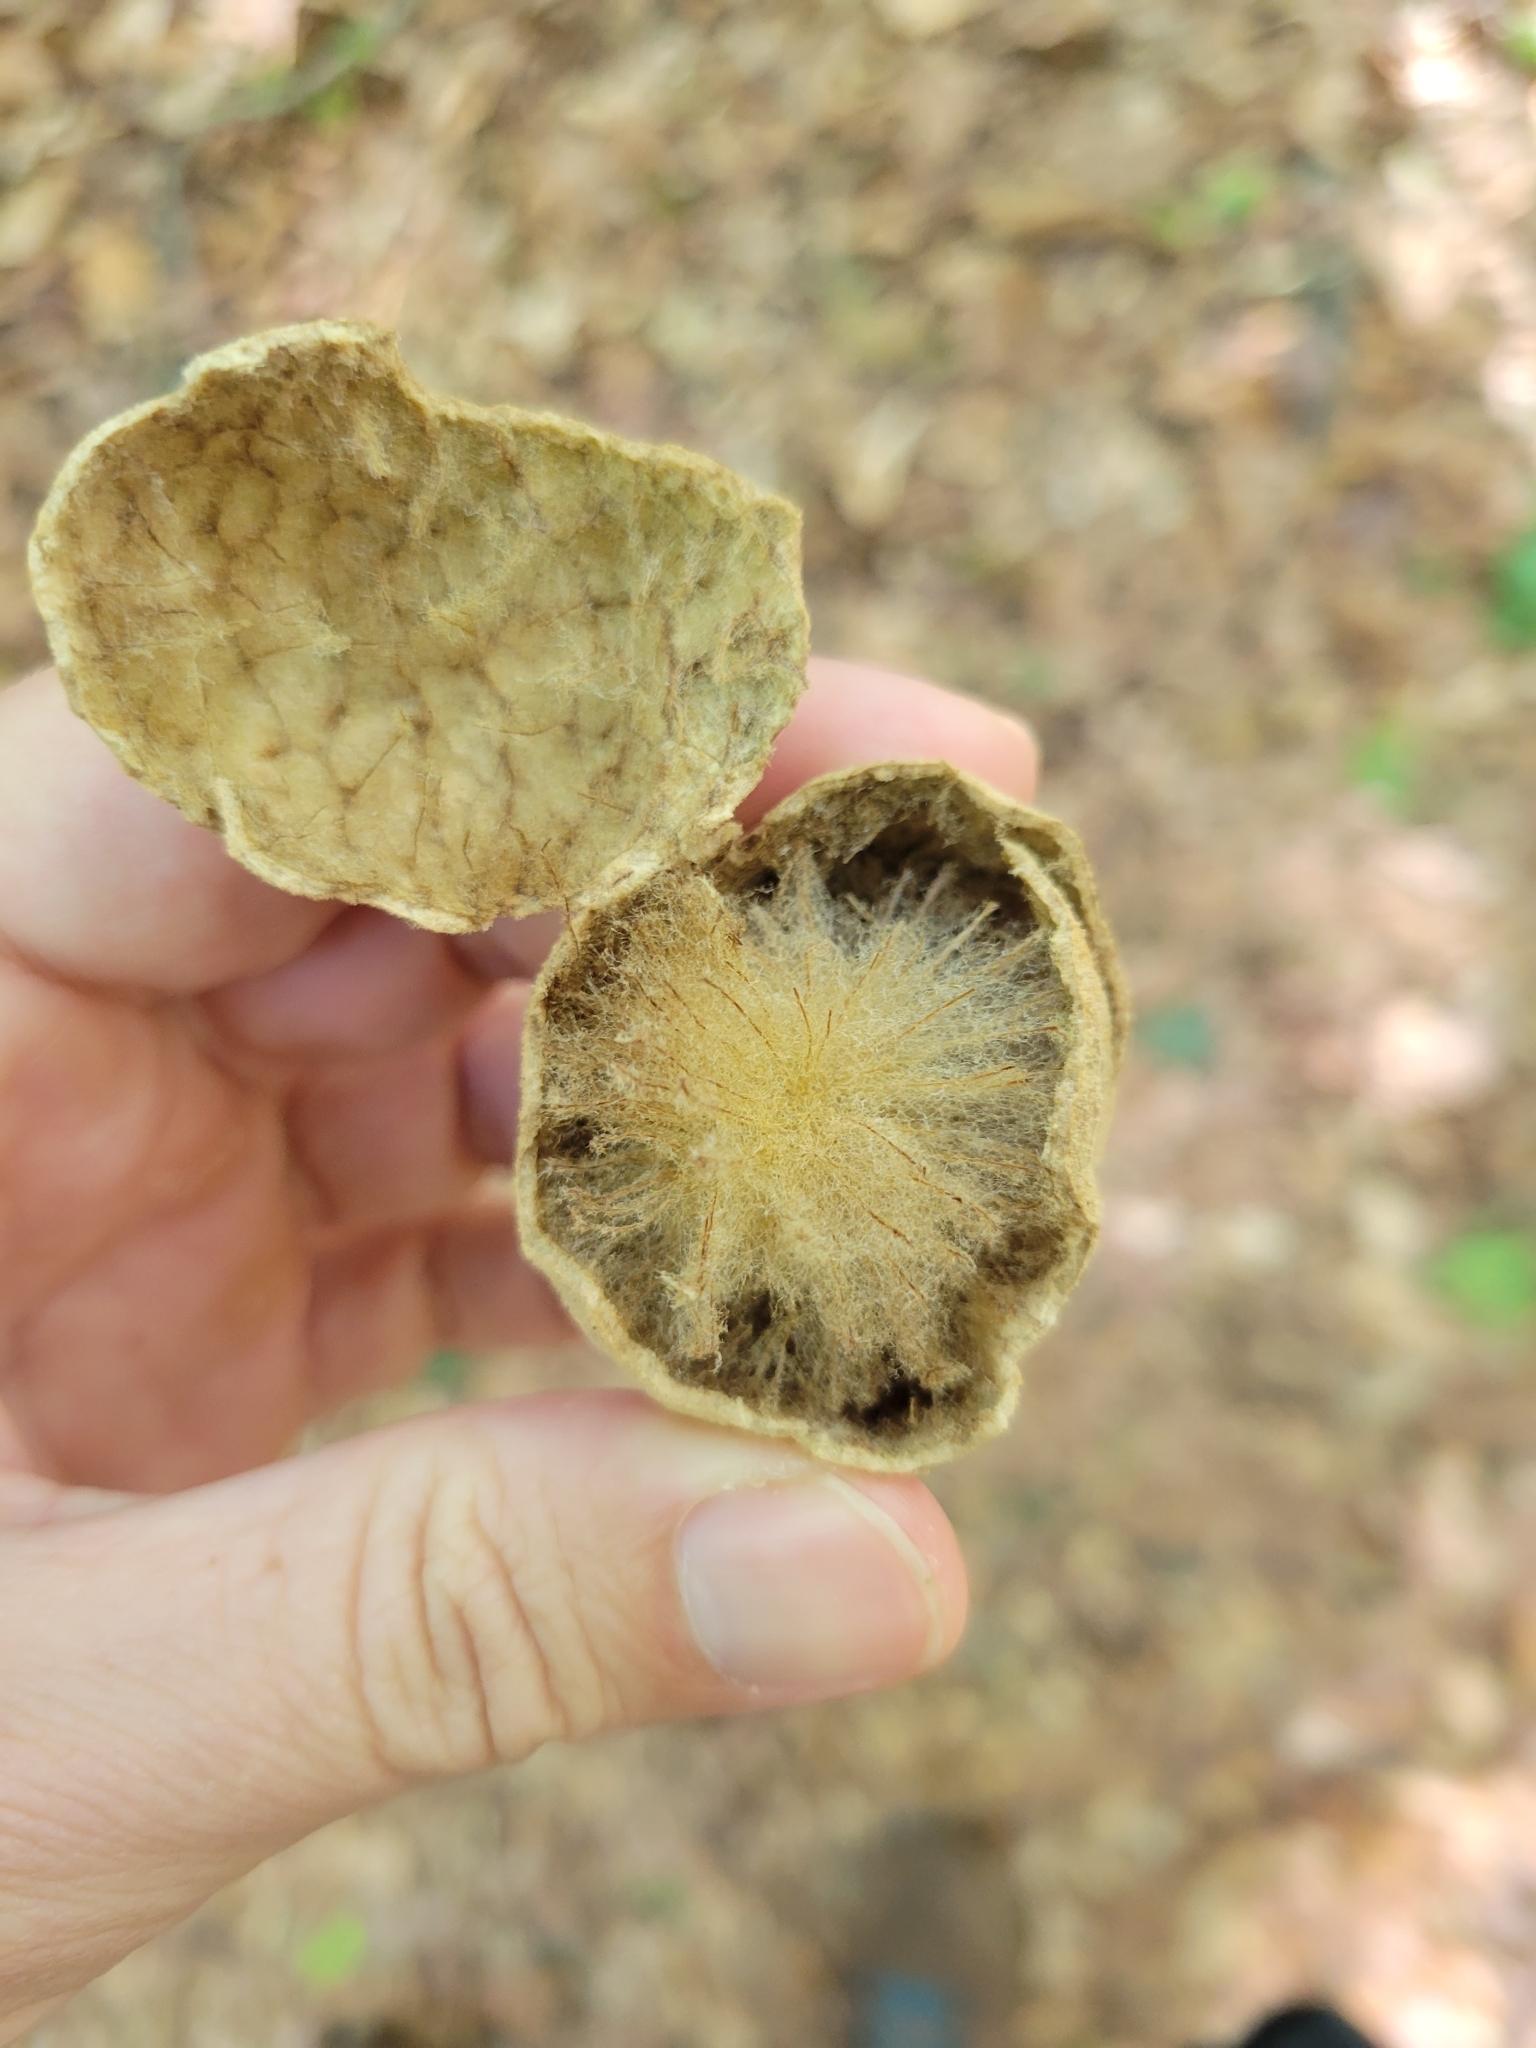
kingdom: Animalia
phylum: Arthropoda
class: Insecta
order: Hymenoptera
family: Cynipidae
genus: Amphibolips
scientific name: Amphibolips
